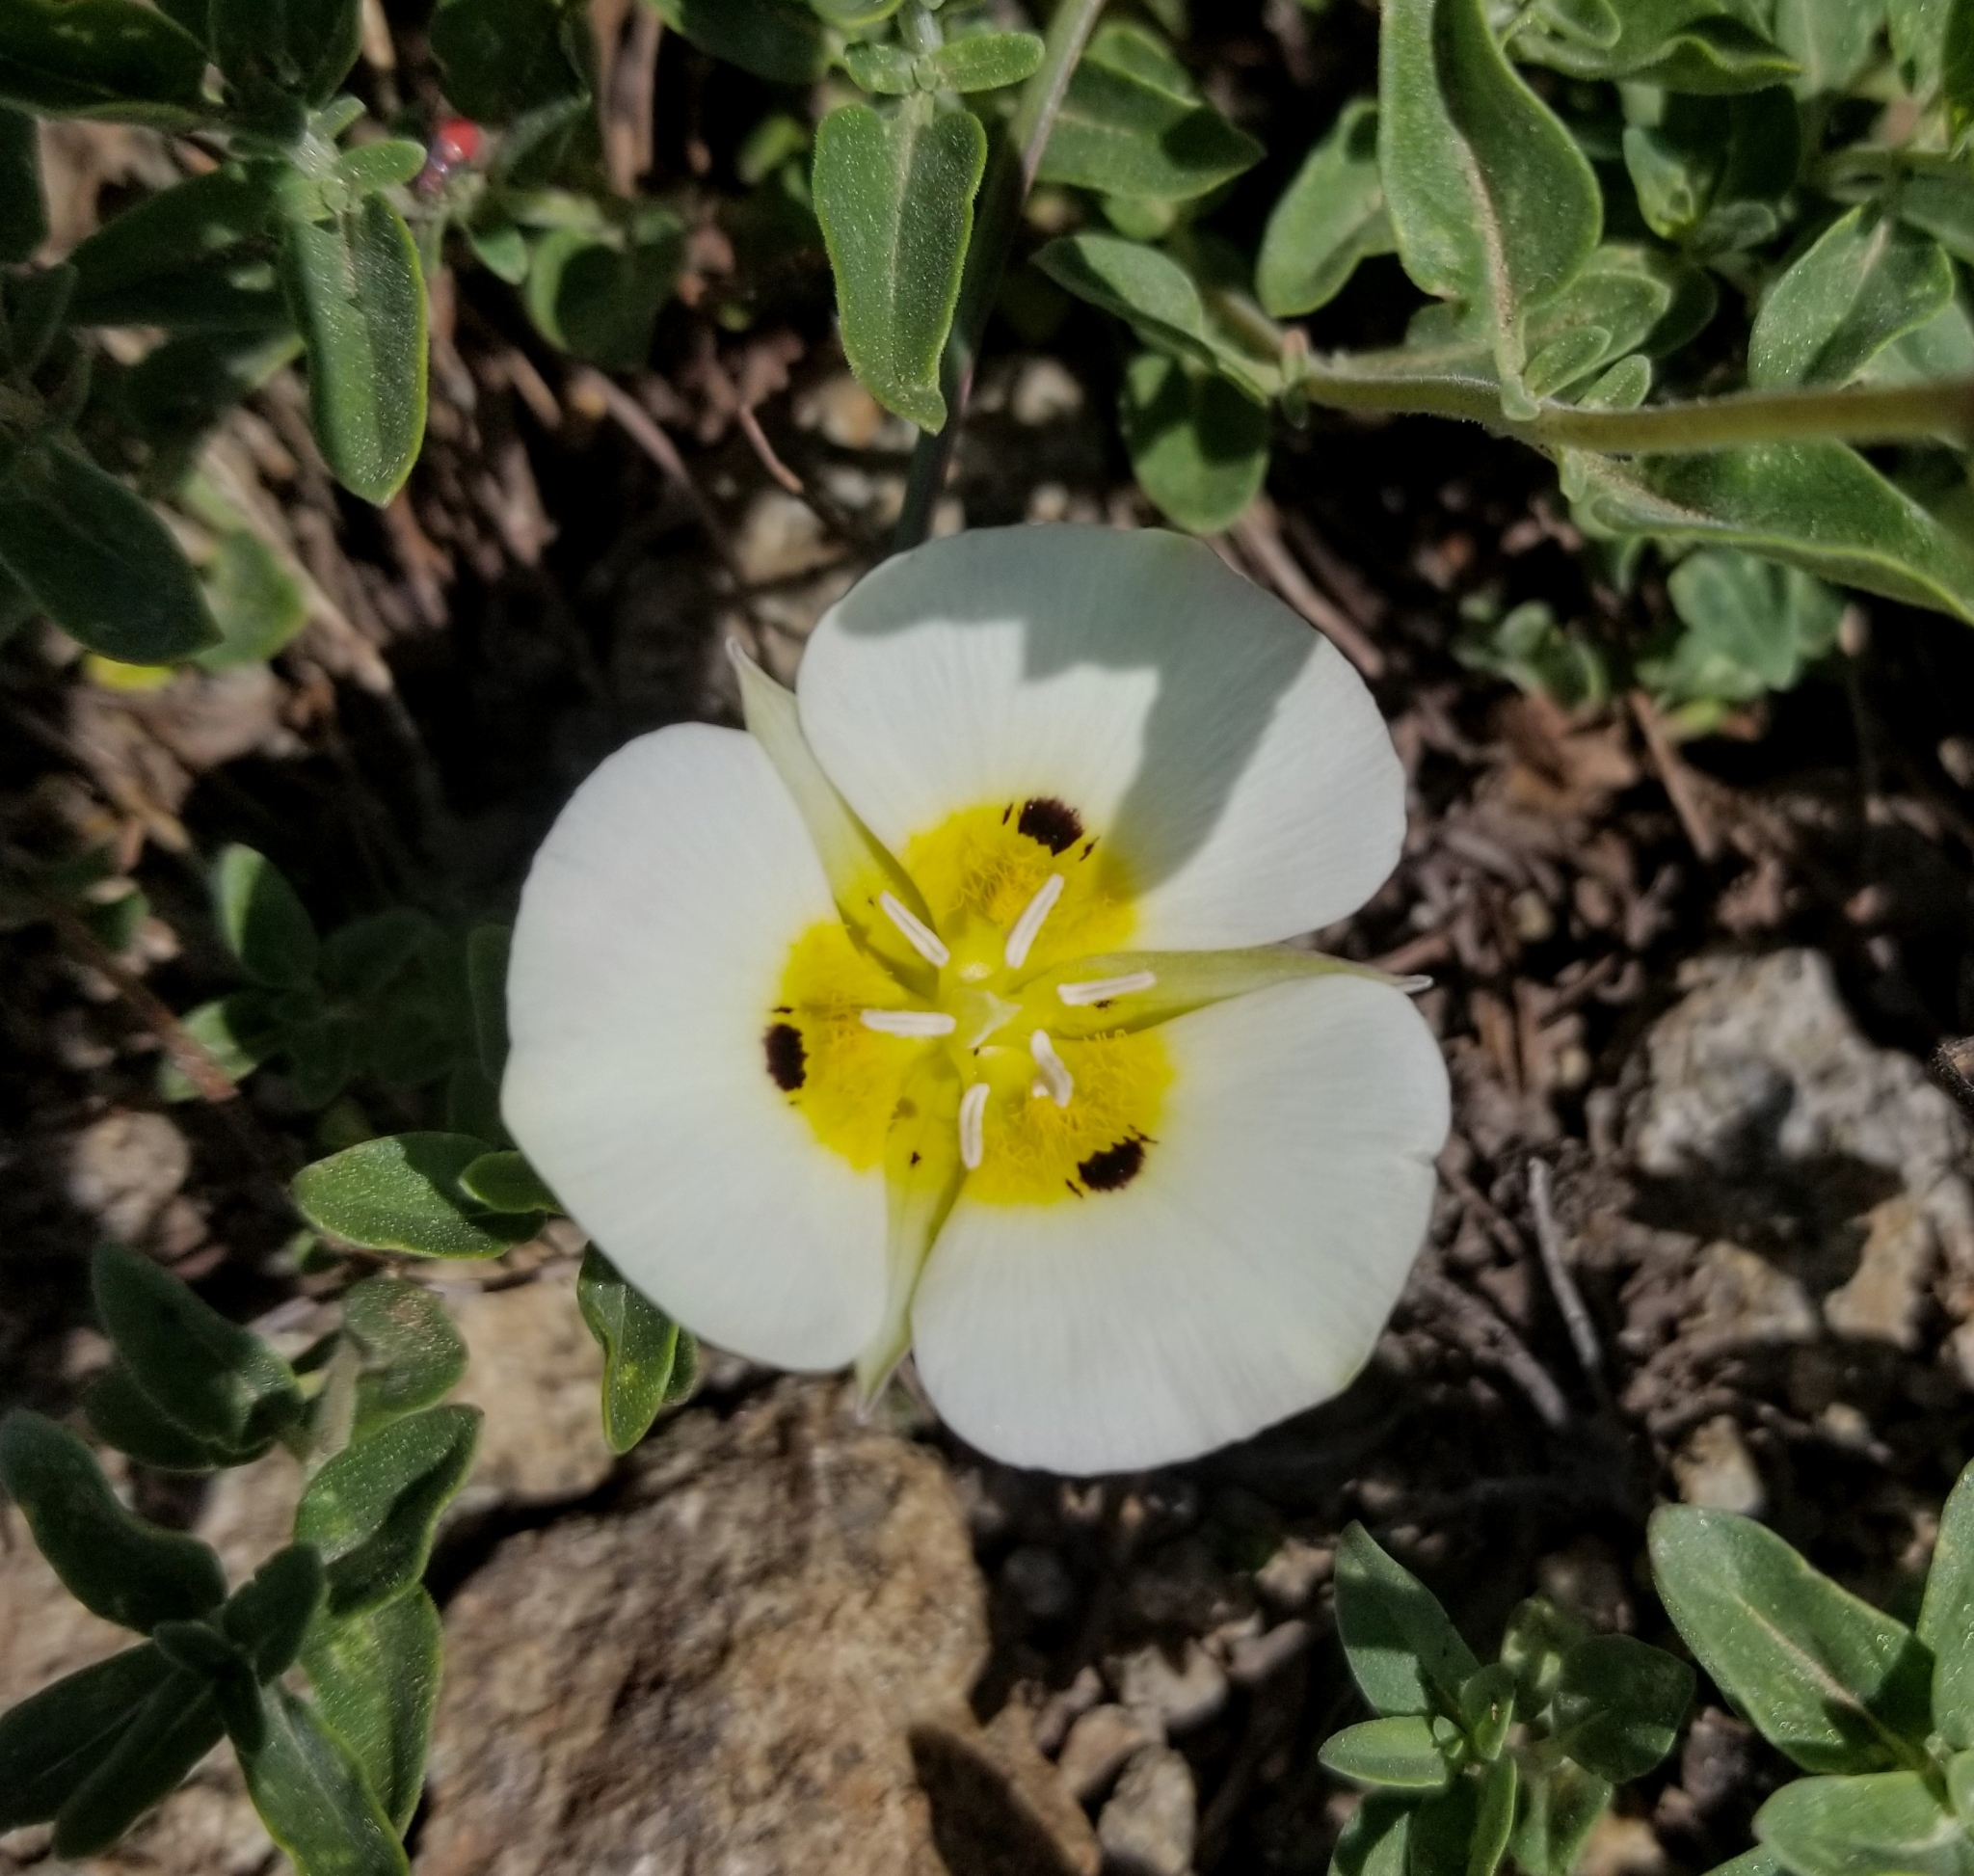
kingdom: Plantae
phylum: Tracheophyta
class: Liliopsida
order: Liliales
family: Liliaceae
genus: Calochortus
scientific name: Calochortus leichtlinii
